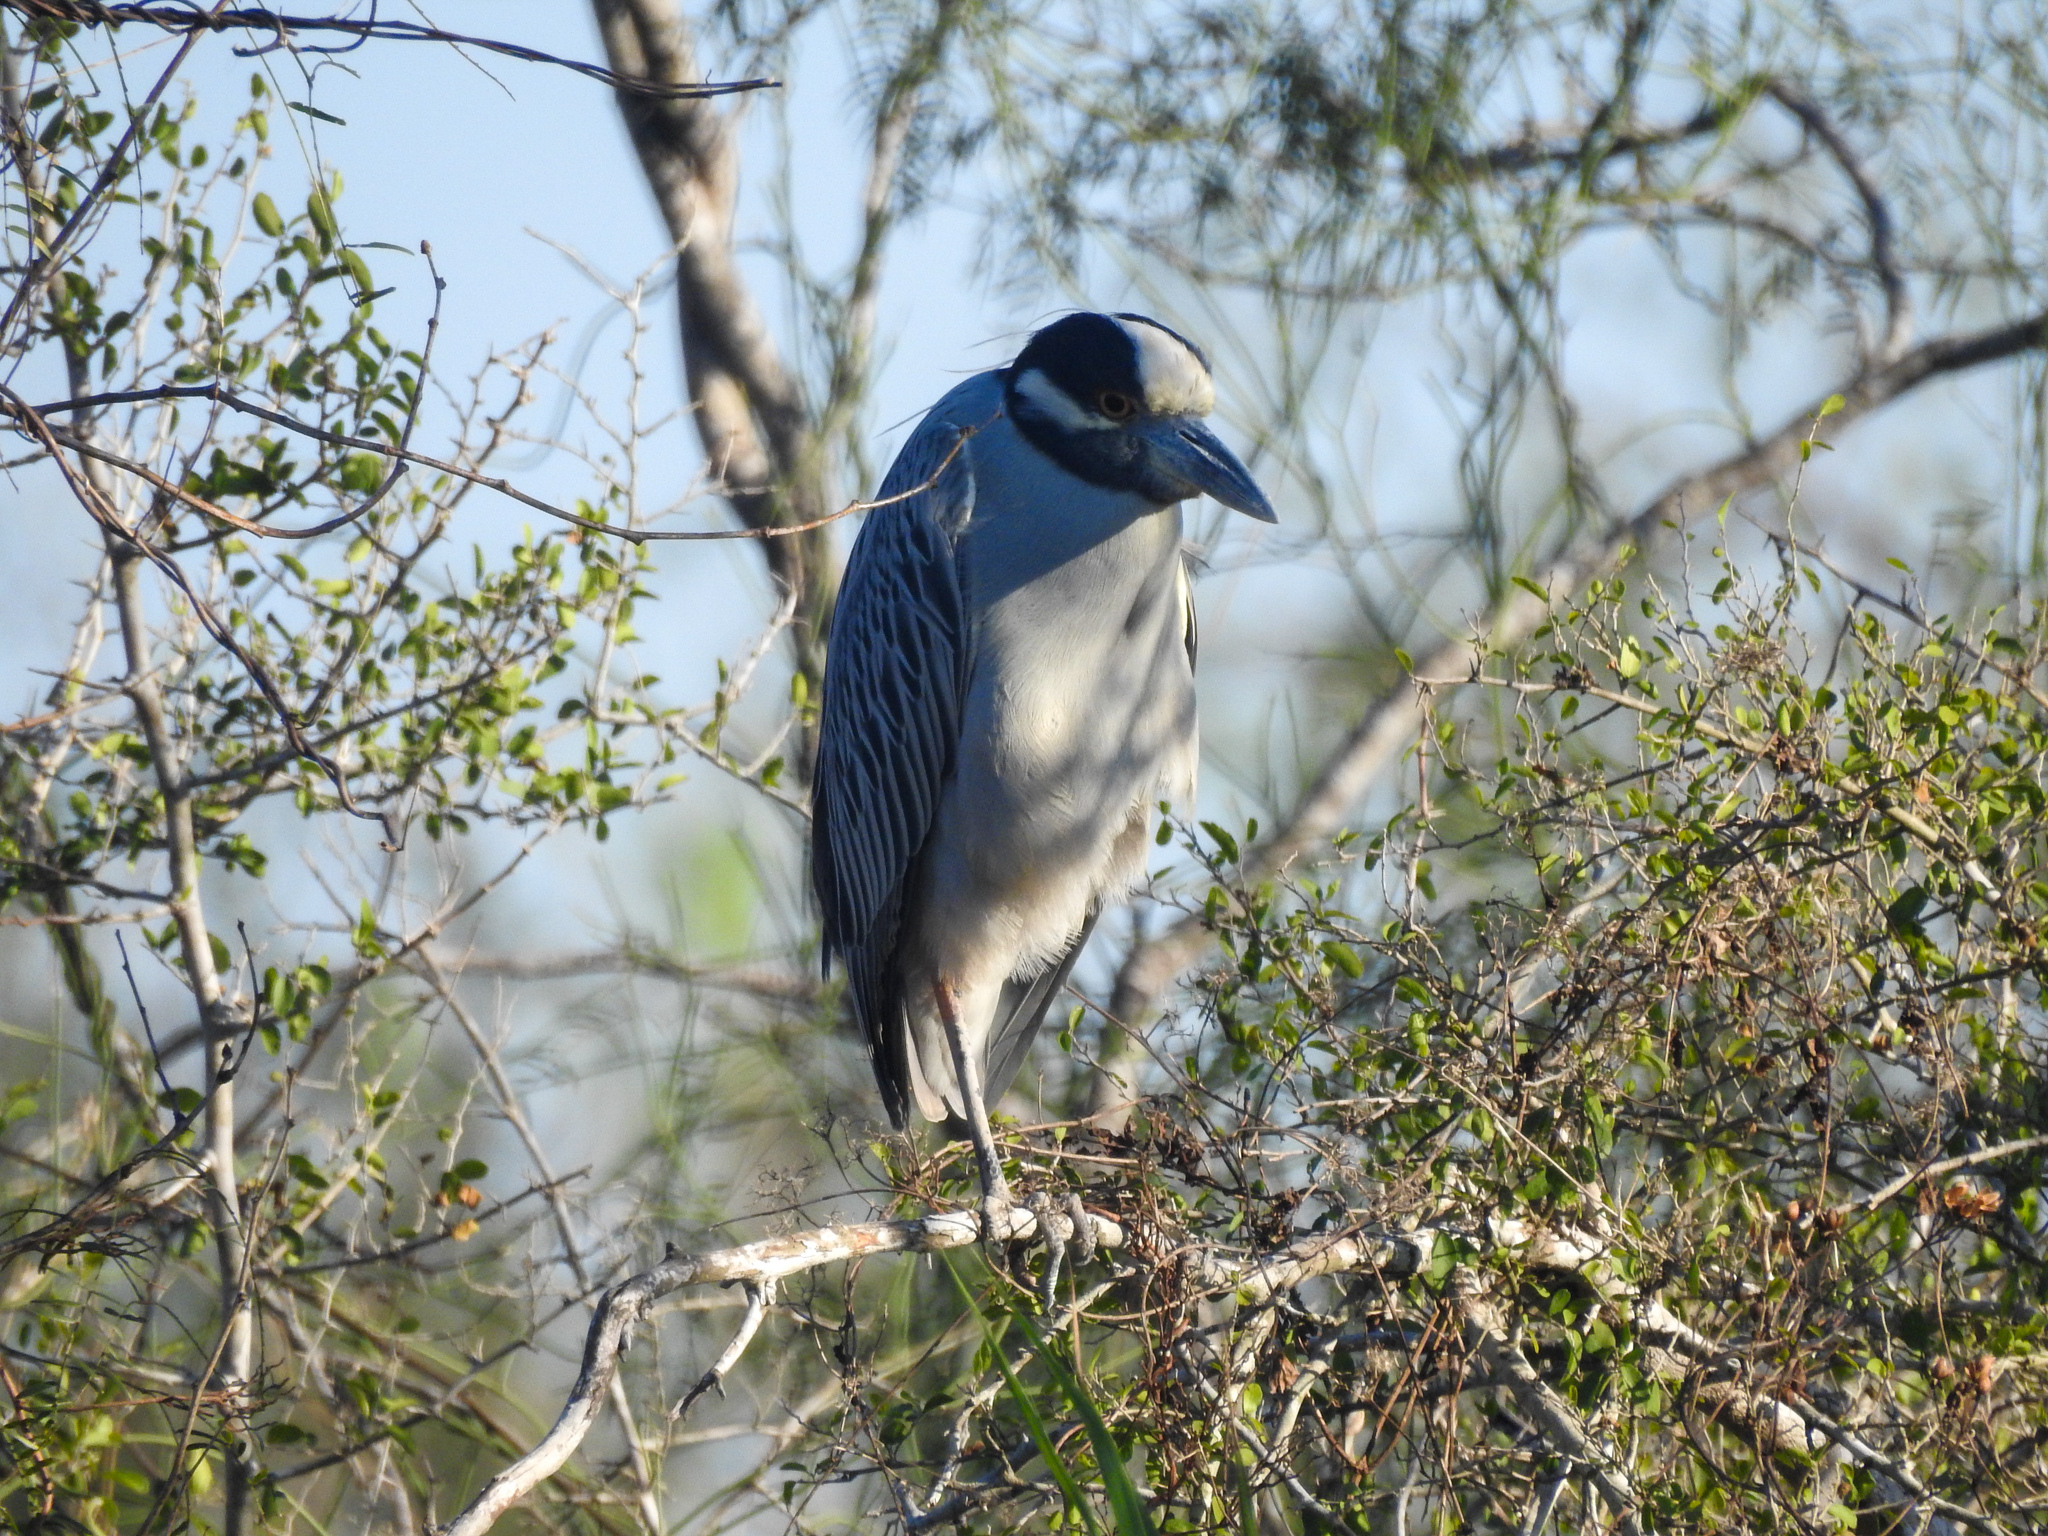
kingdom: Animalia
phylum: Chordata
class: Aves
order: Pelecaniformes
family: Ardeidae
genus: Nyctanassa
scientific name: Nyctanassa violacea
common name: Yellow-crowned night heron
